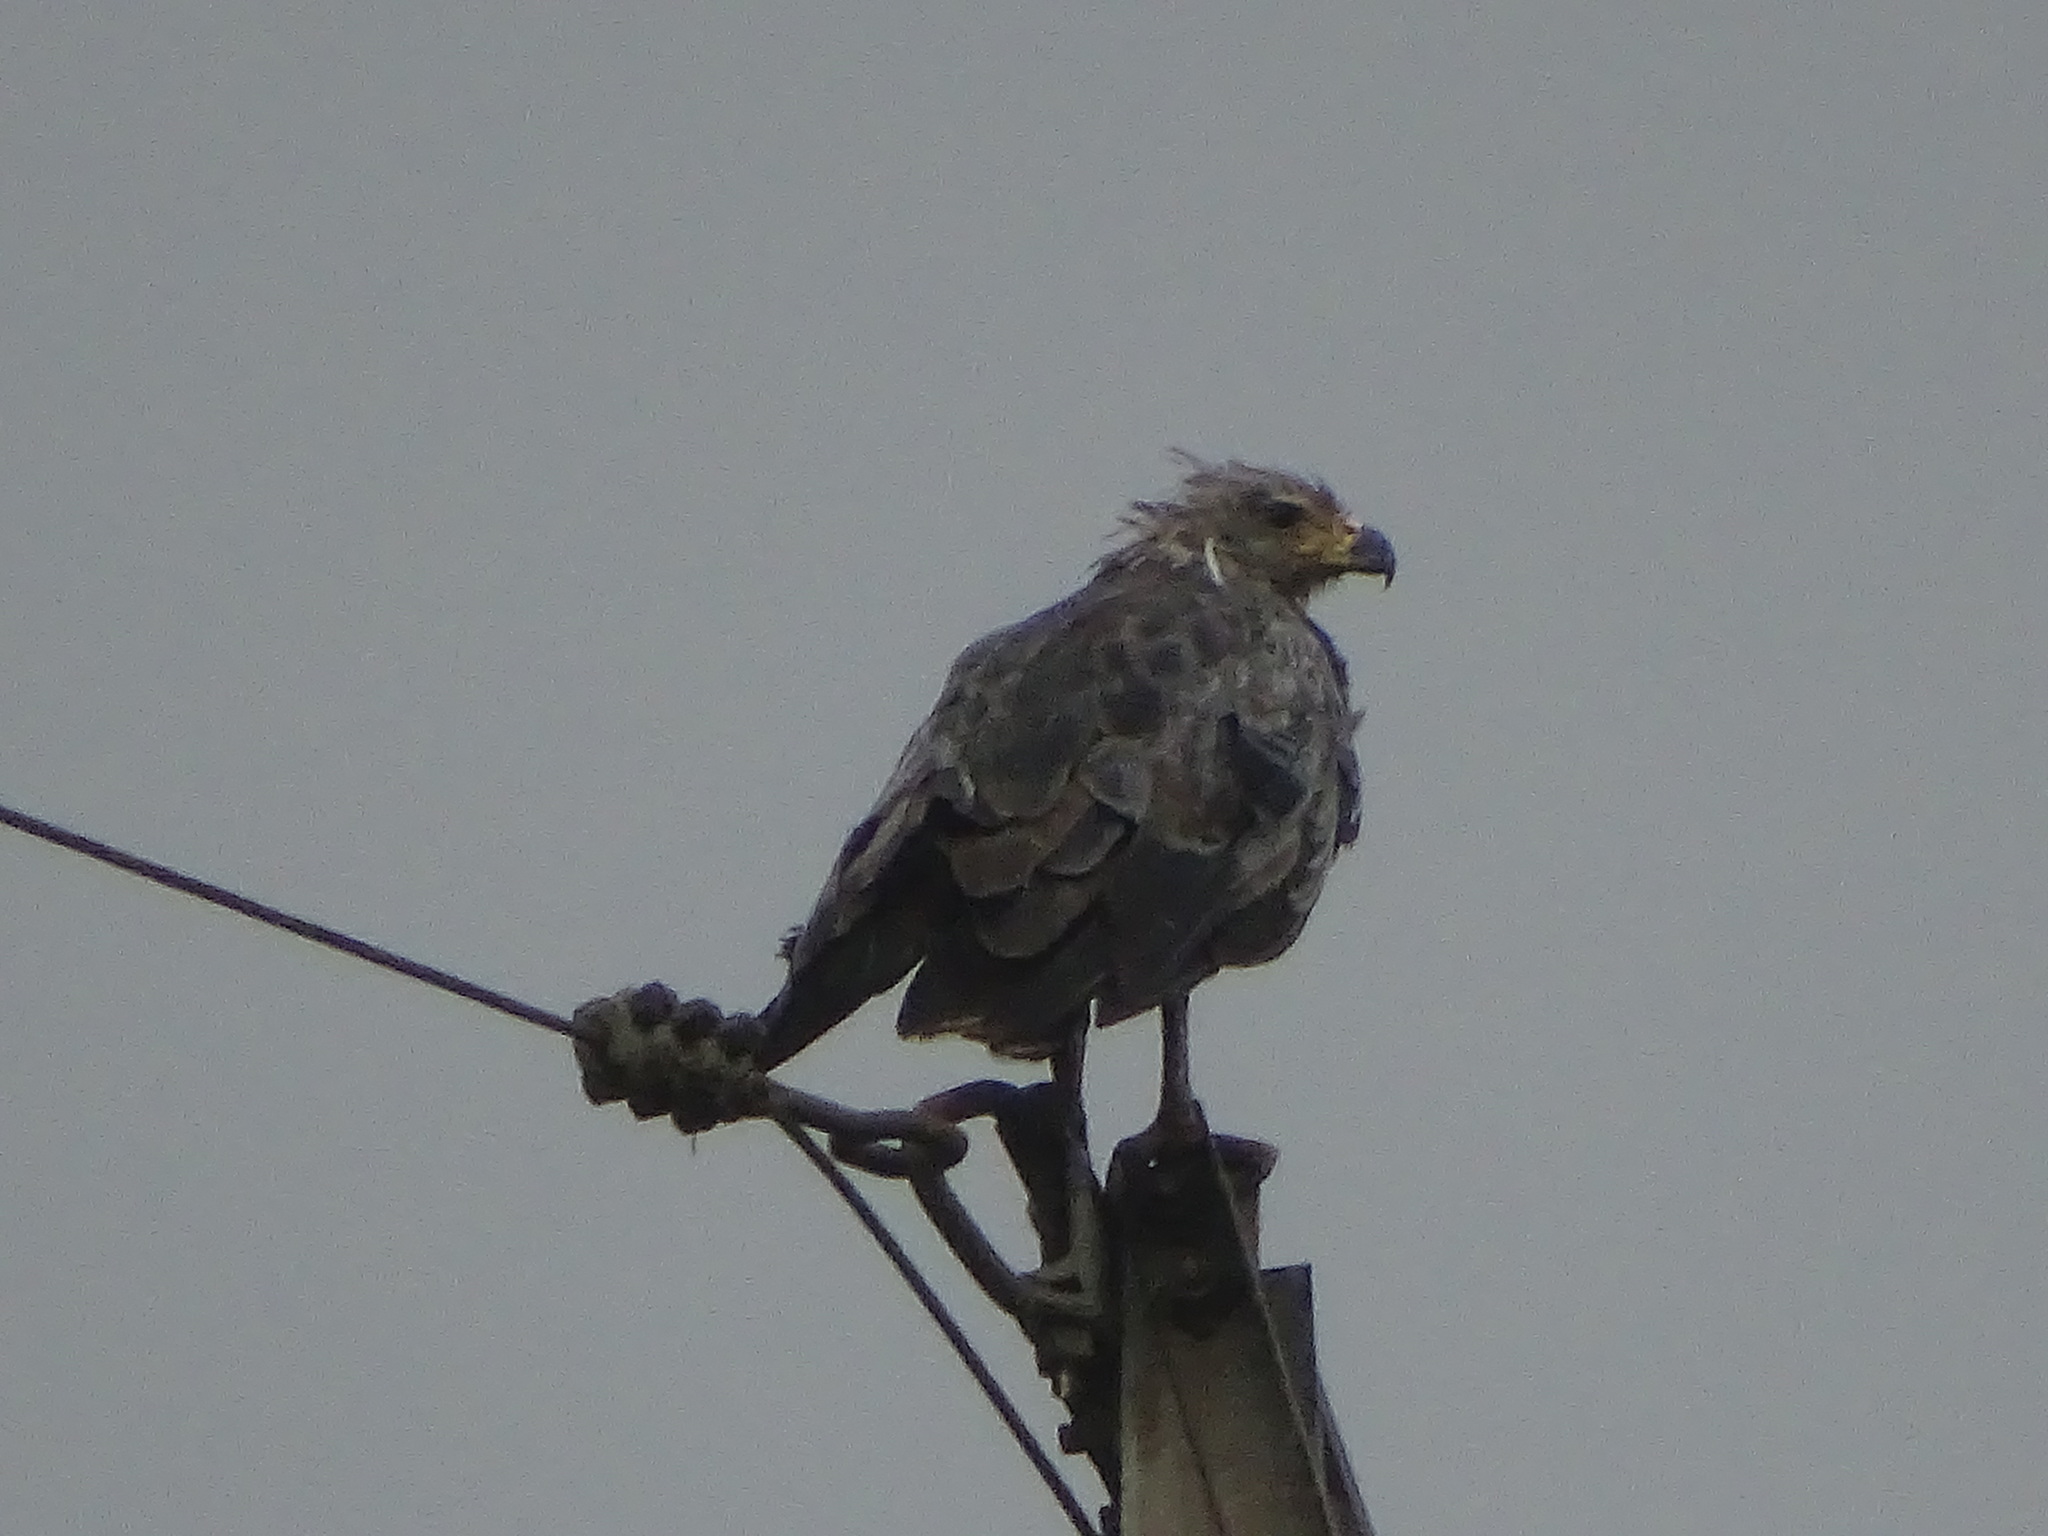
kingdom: Animalia
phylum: Chordata
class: Aves
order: Accipitriformes
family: Accipitridae
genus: Harpyhaliaetus
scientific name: Harpyhaliaetus coronatus
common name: Crowned solitary eagle
